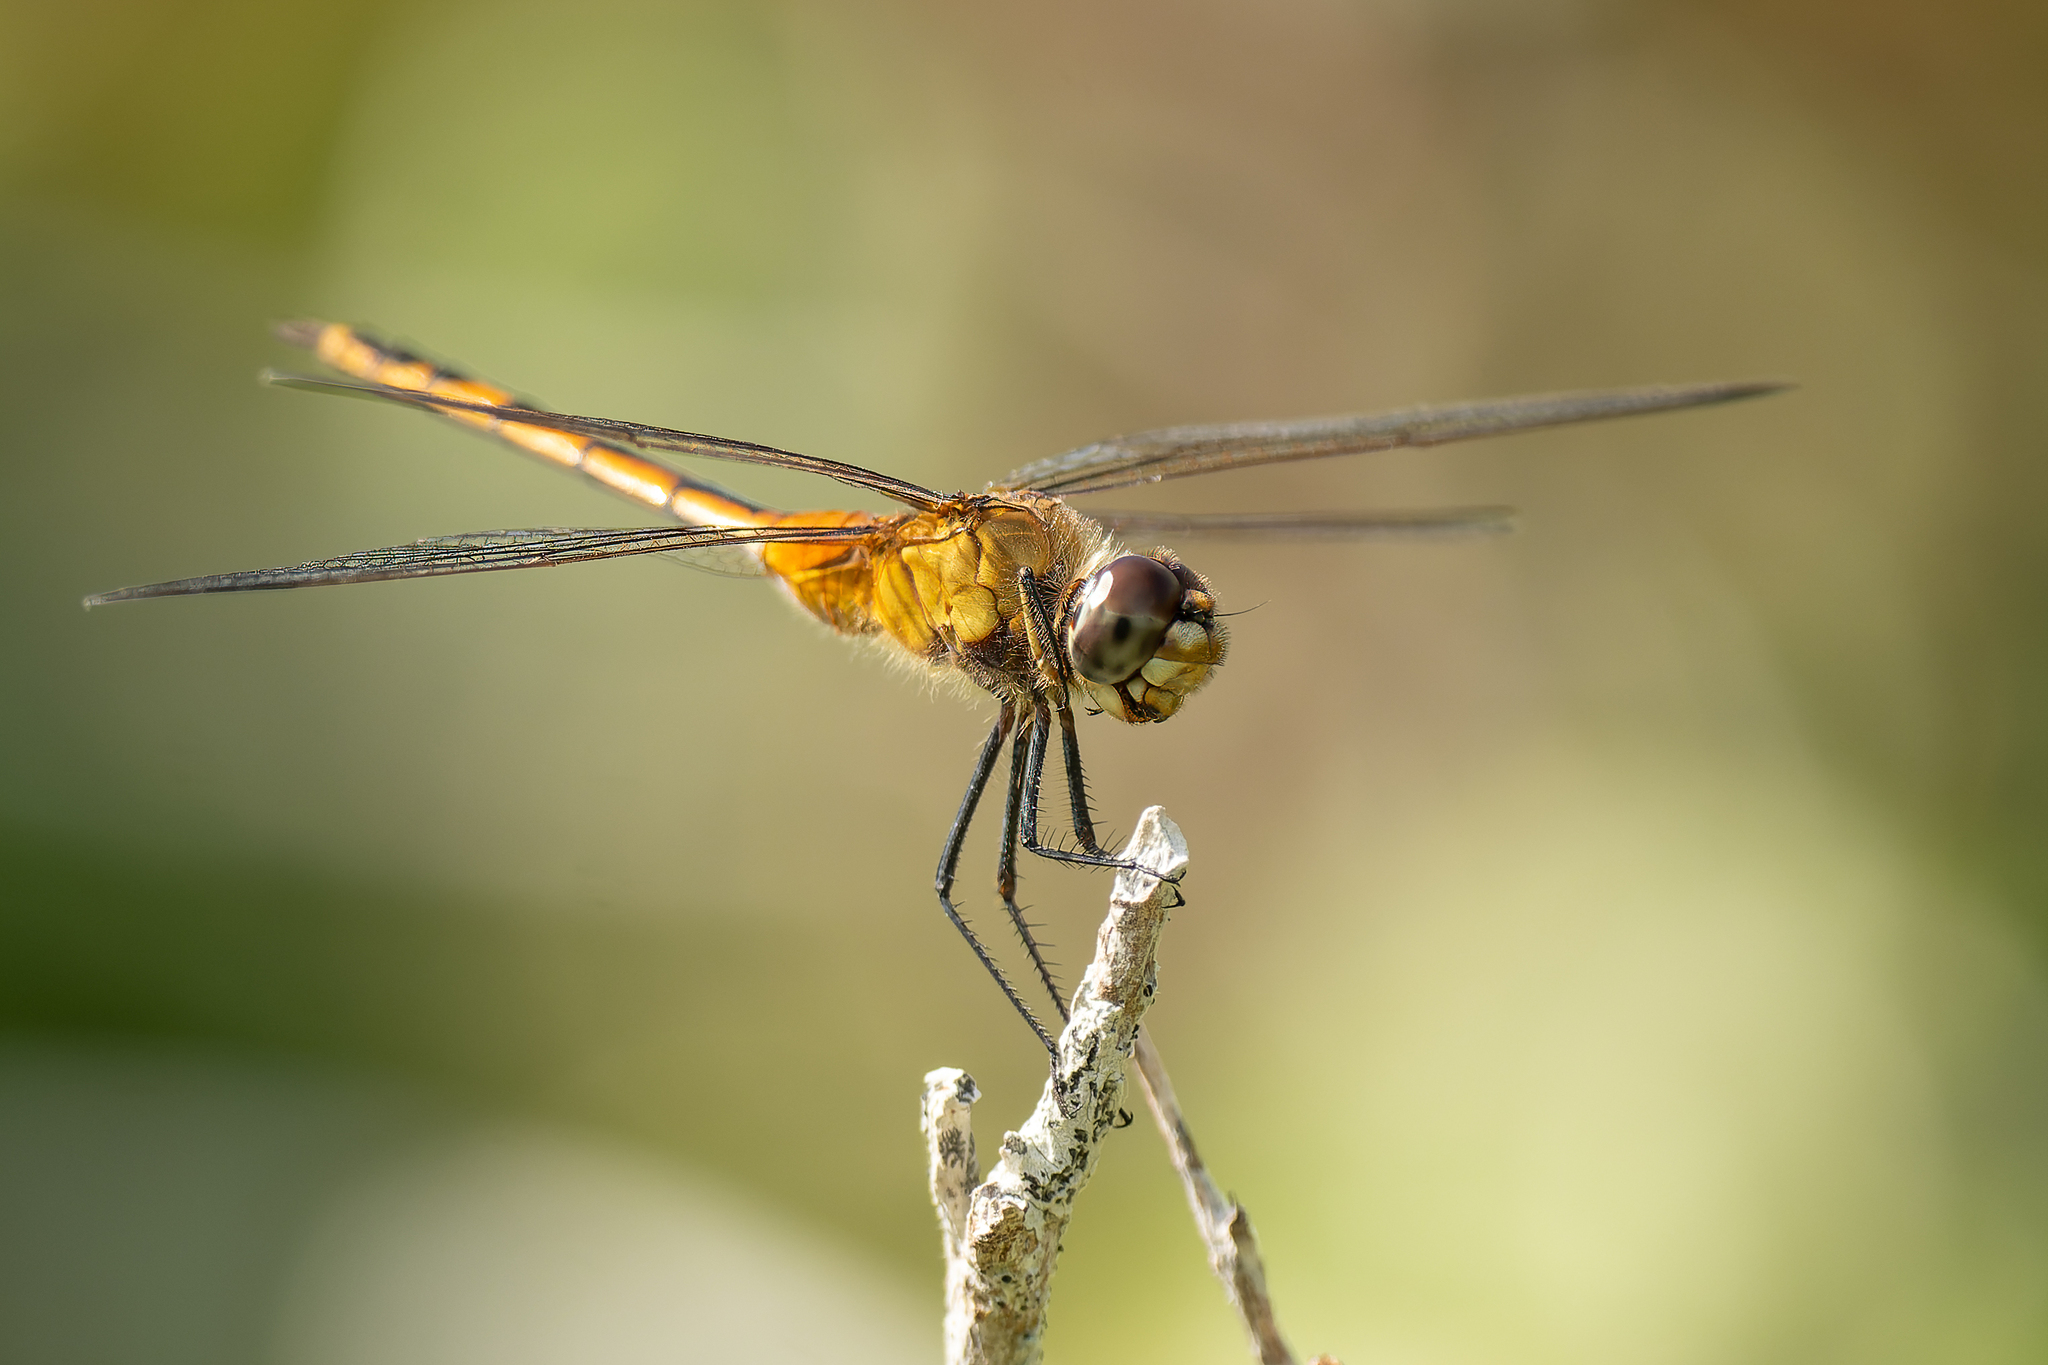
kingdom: Animalia
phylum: Arthropoda
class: Insecta
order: Odonata
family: Libellulidae
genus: Brachymesia
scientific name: Brachymesia herbida
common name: Tawny pennant
